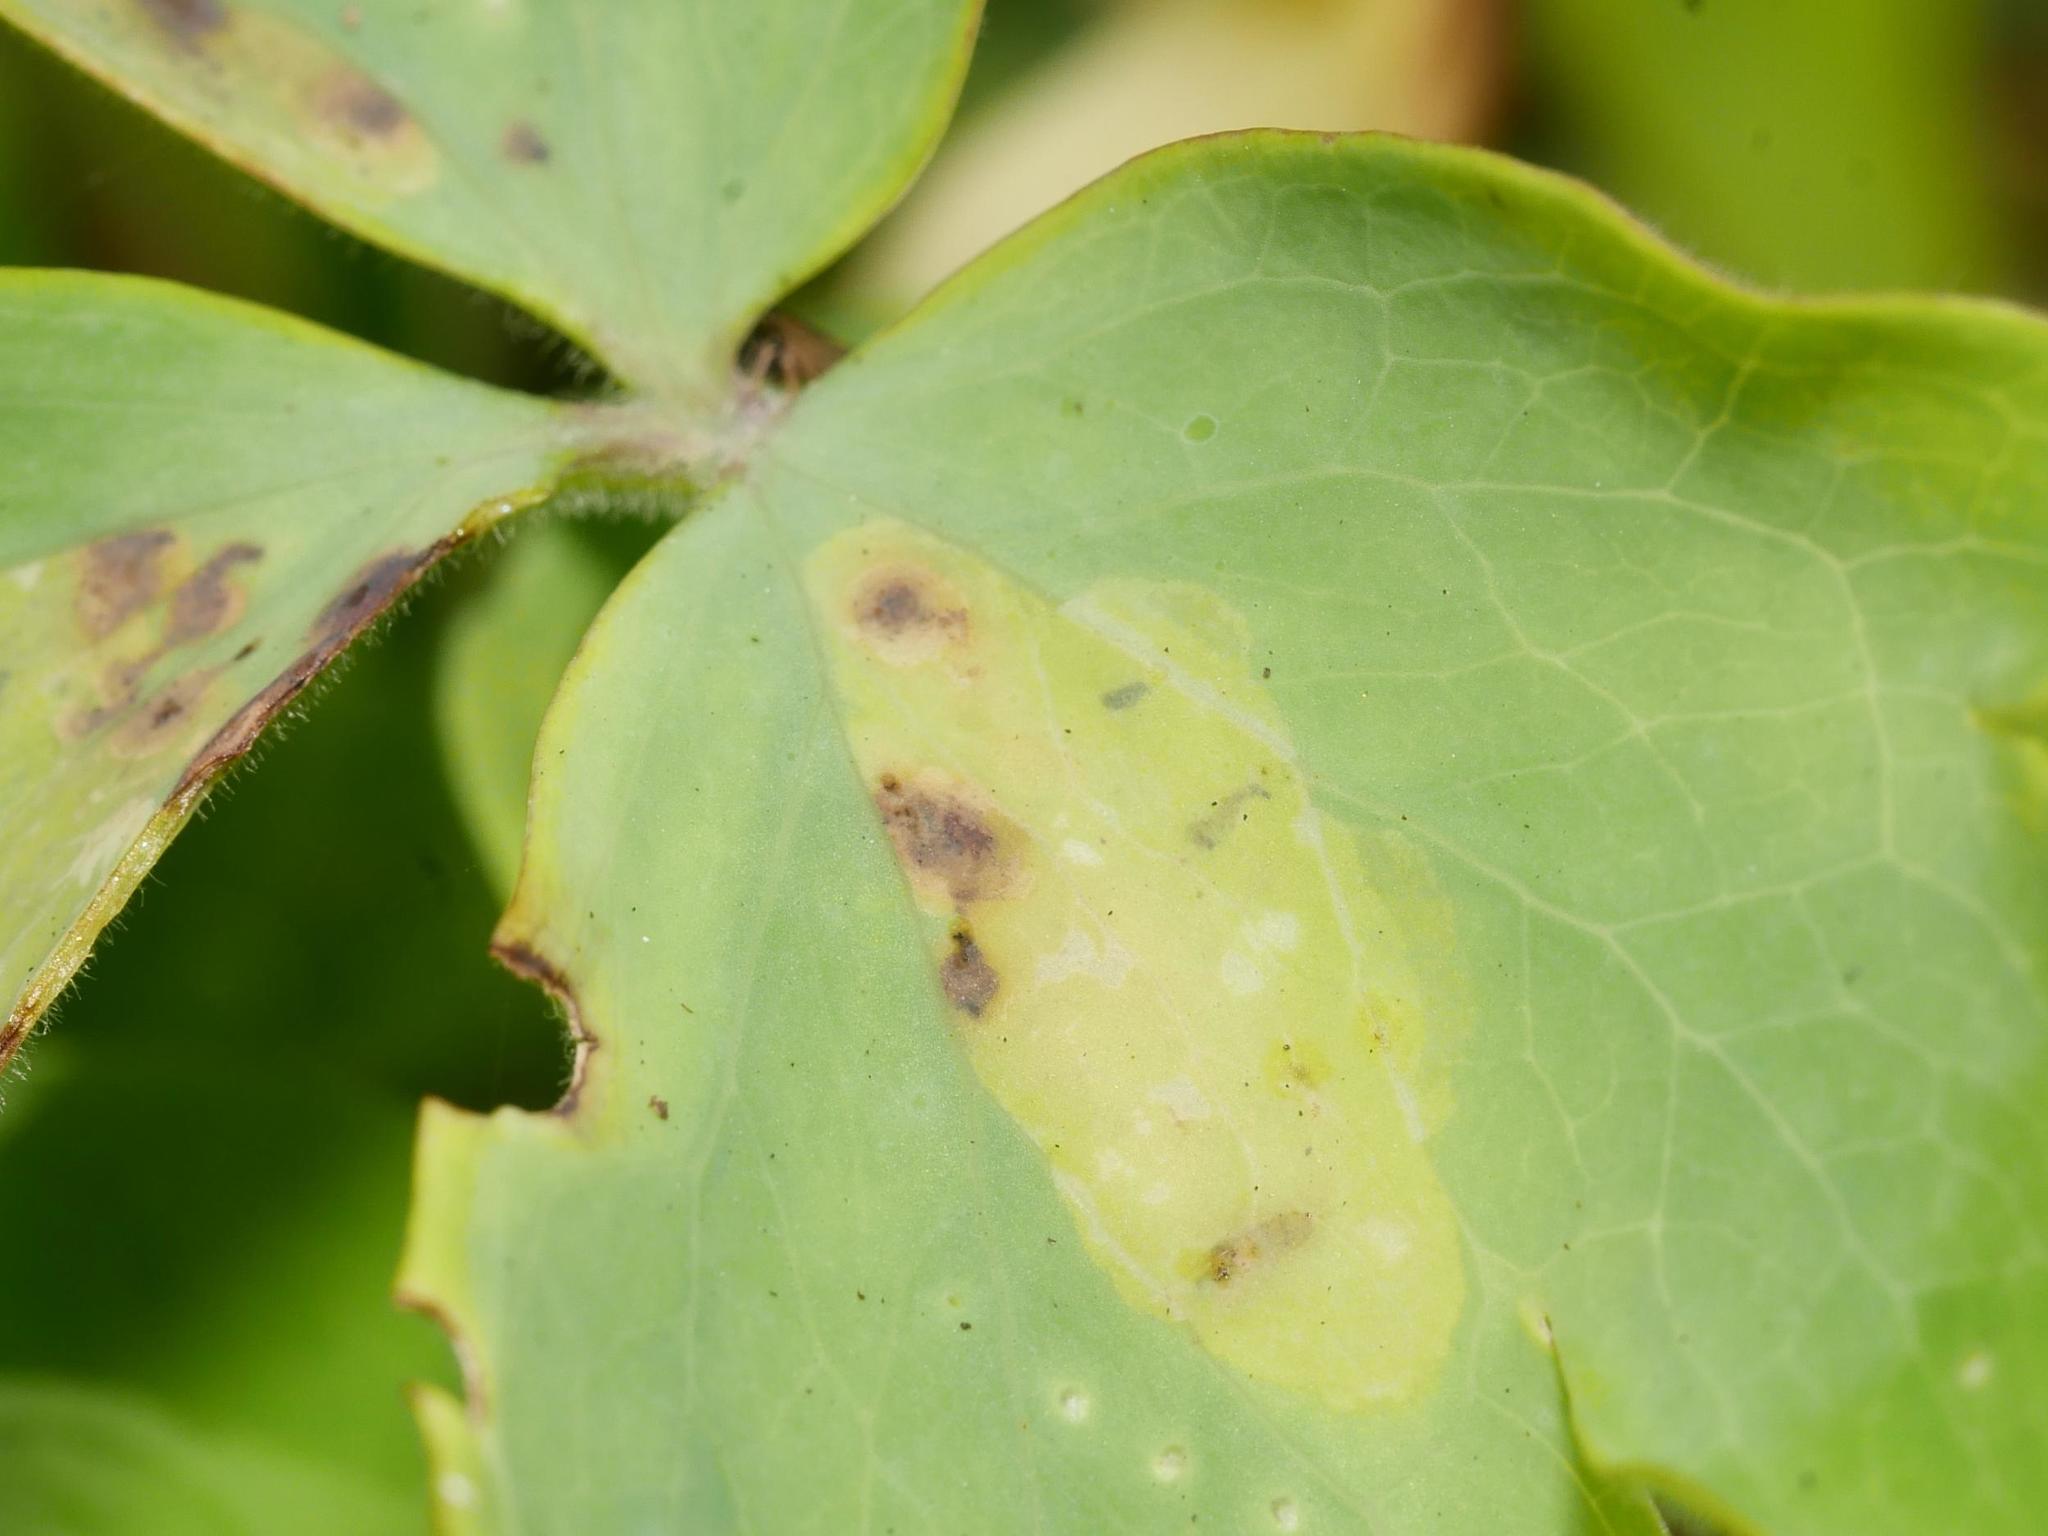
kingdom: Animalia
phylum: Arthropoda
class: Insecta
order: Diptera
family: Agromyzidae
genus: Phytomyza
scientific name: Phytomyza aquilegiae
